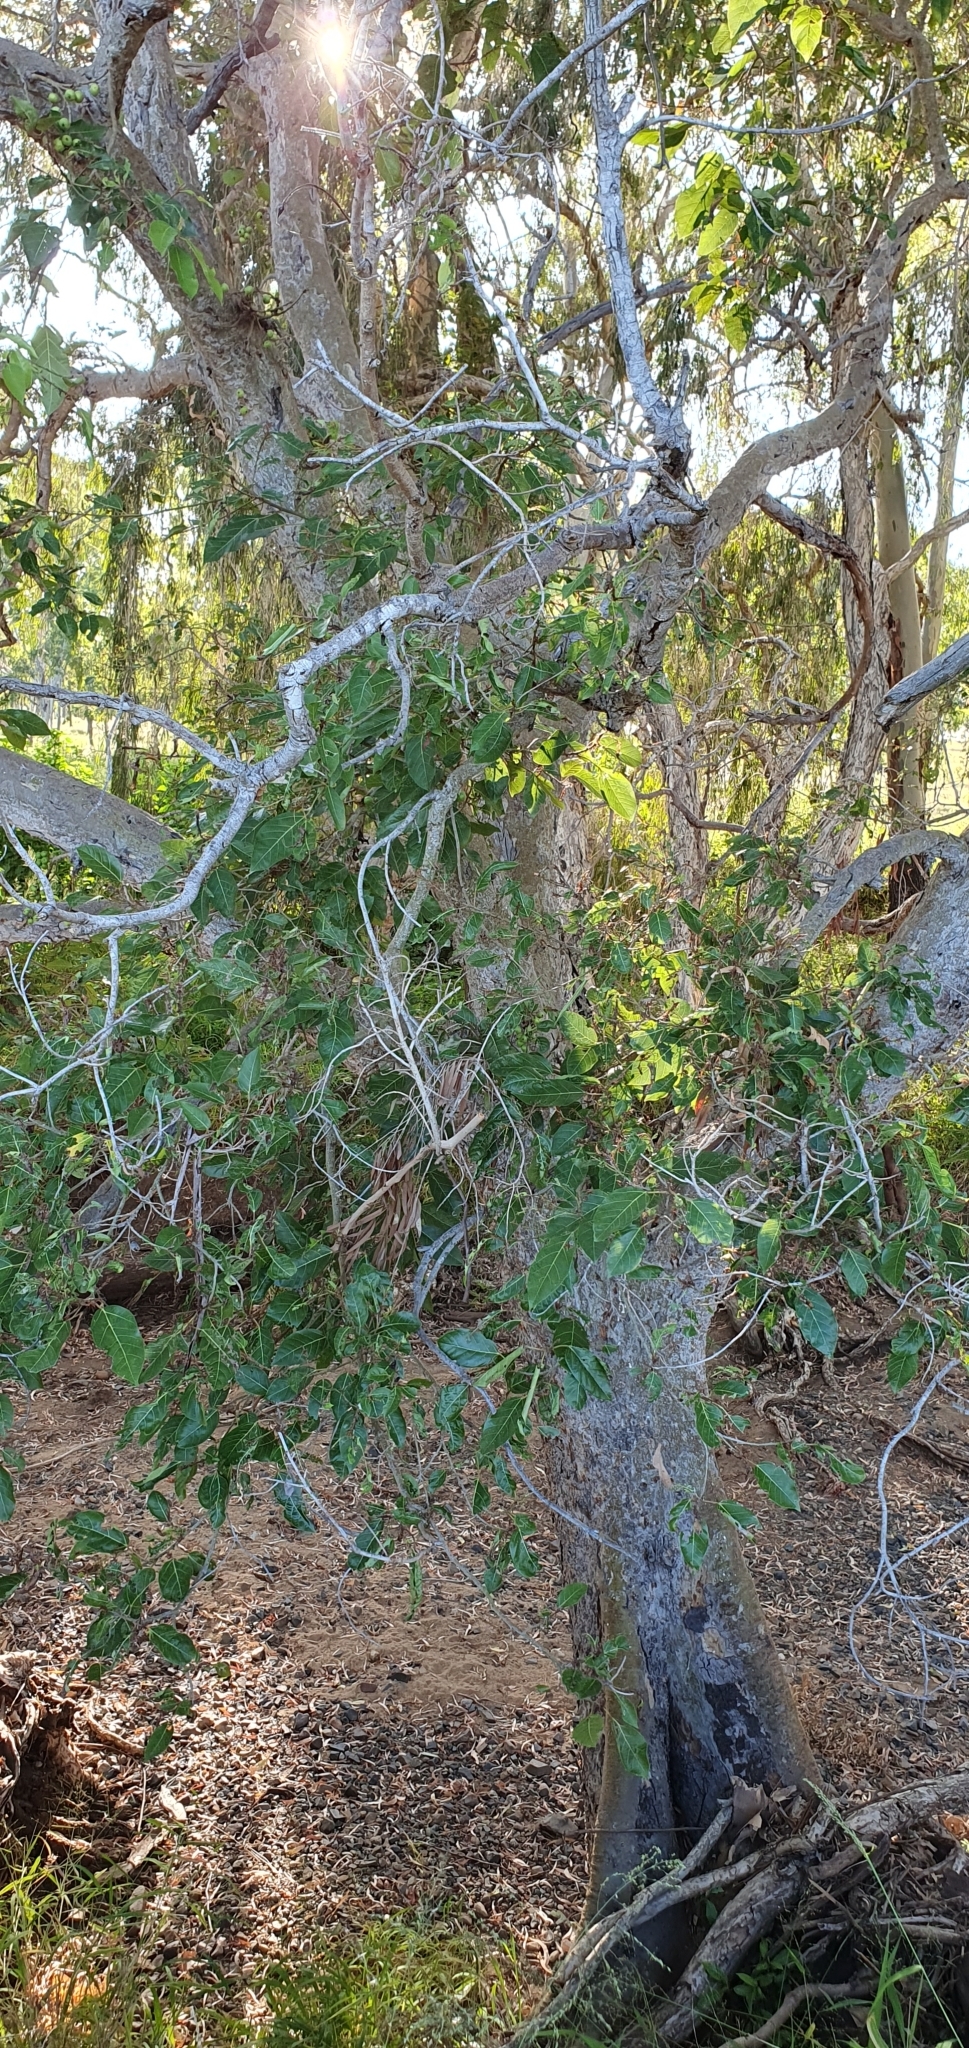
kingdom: Plantae
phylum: Tracheophyta
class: Magnoliopsida
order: Rosales
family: Moraceae
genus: Ficus
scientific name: Ficus racemosa
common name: Cluster fig
